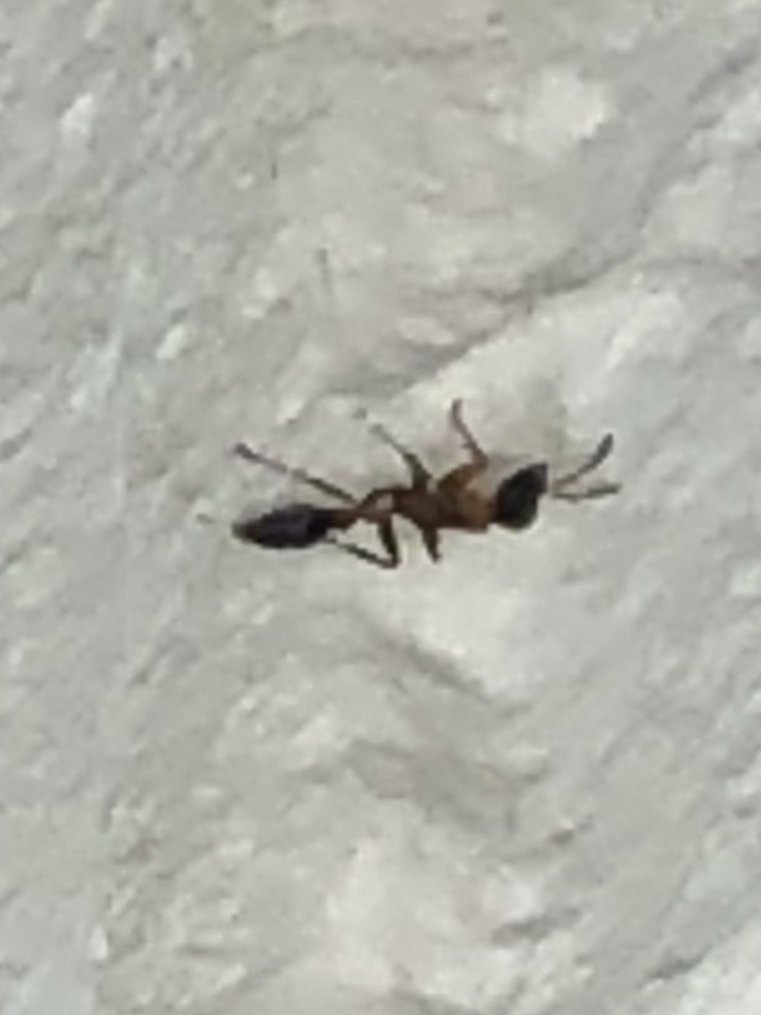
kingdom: Animalia
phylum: Arthropoda
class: Insecta
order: Hymenoptera
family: Formicidae
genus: Pseudomyrmex
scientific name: Pseudomyrmex gracilis
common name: Graceful twig ant
